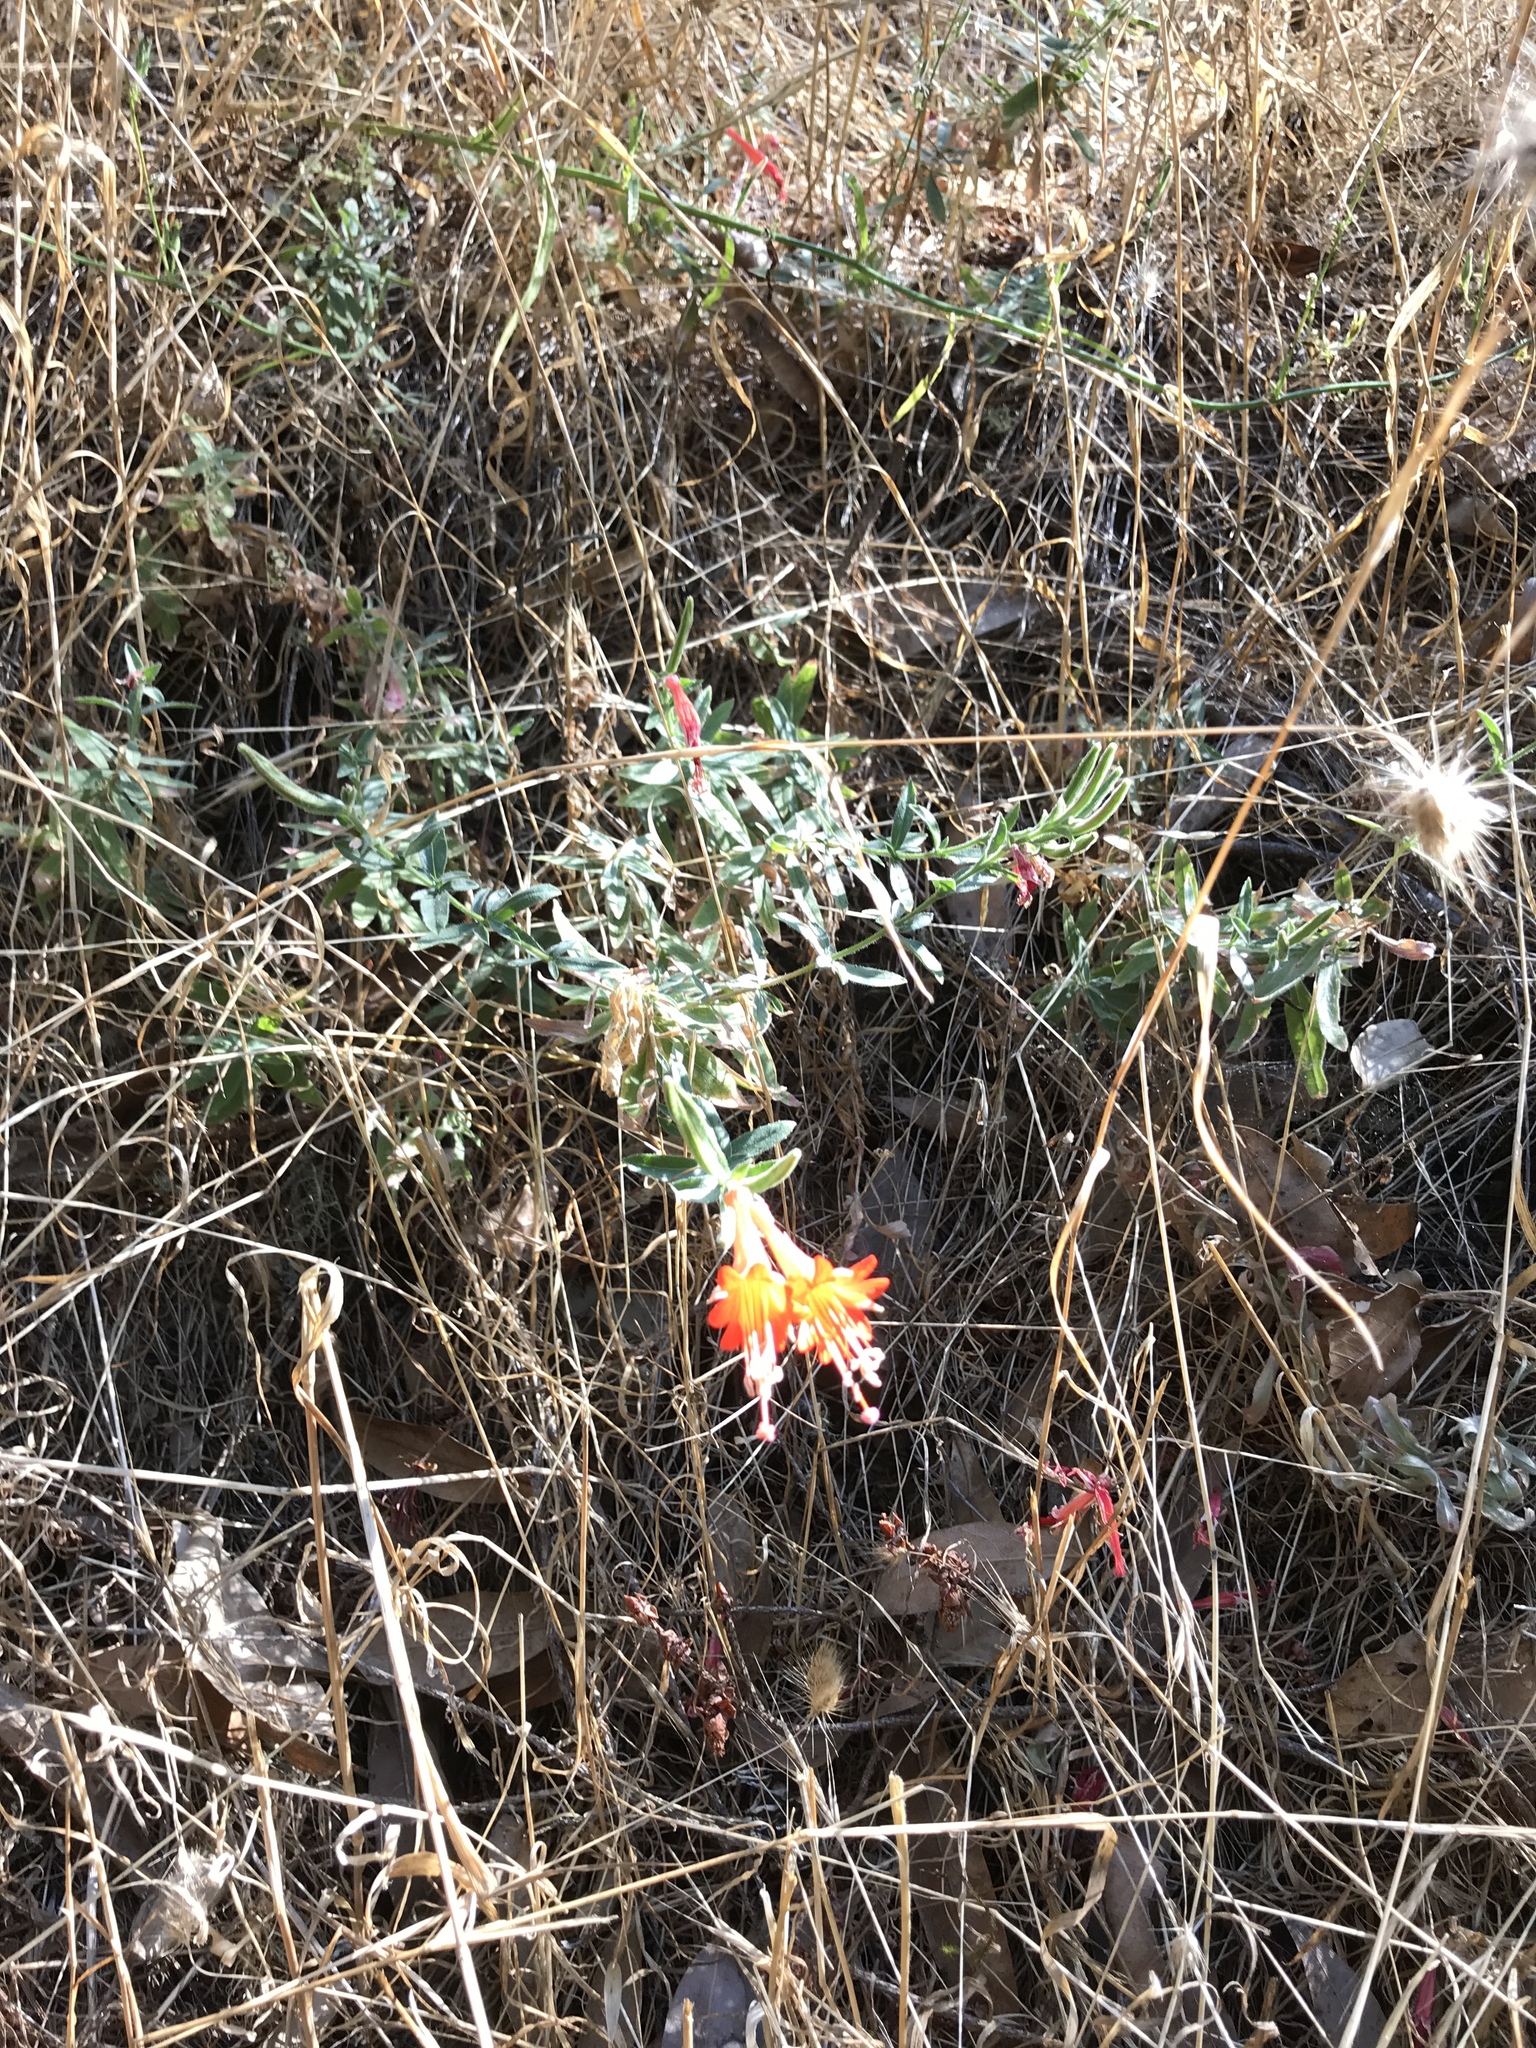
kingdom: Plantae
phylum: Tracheophyta
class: Magnoliopsida
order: Myrtales
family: Onagraceae
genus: Epilobium
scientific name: Epilobium canum
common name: California-fuchsia
